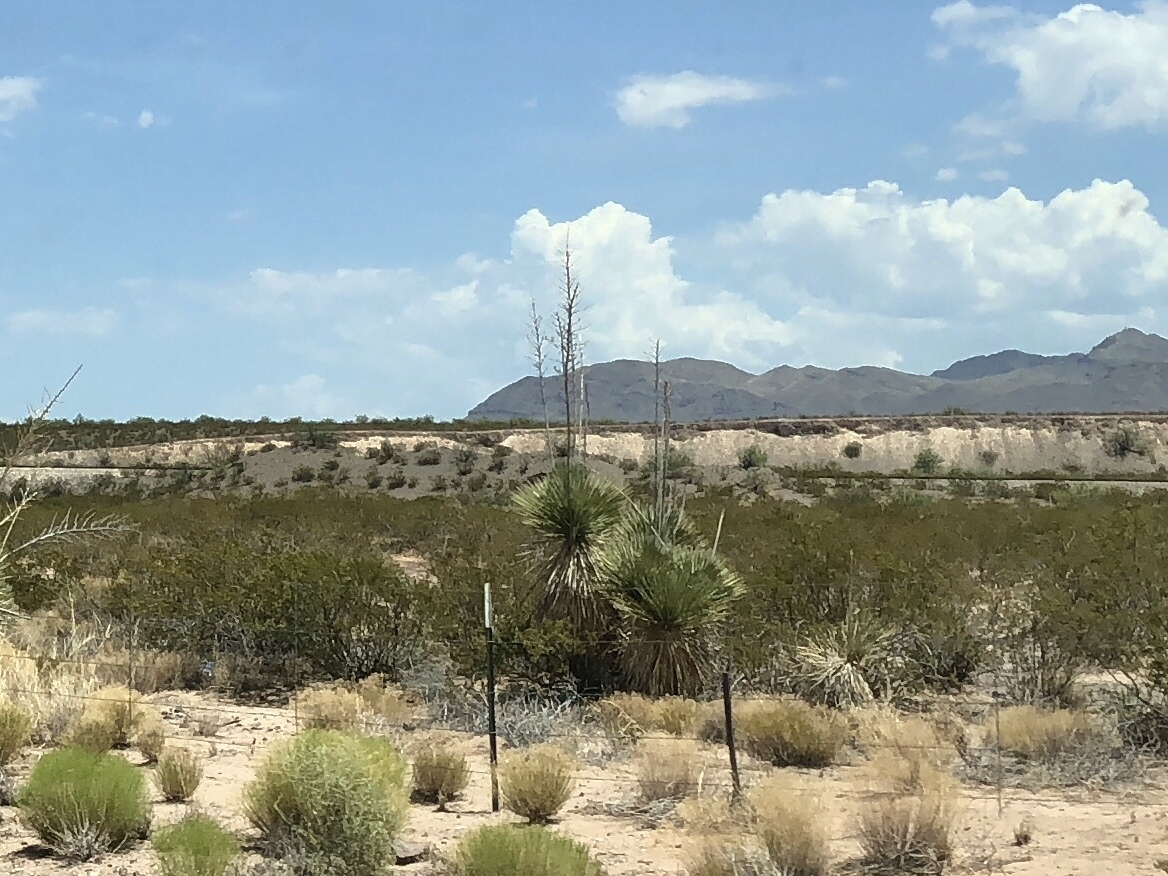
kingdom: Plantae
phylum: Tracheophyta
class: Liliopsida
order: Asparagales
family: Asparagaceae
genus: Yucca
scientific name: Yucca elata
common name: Palmella
